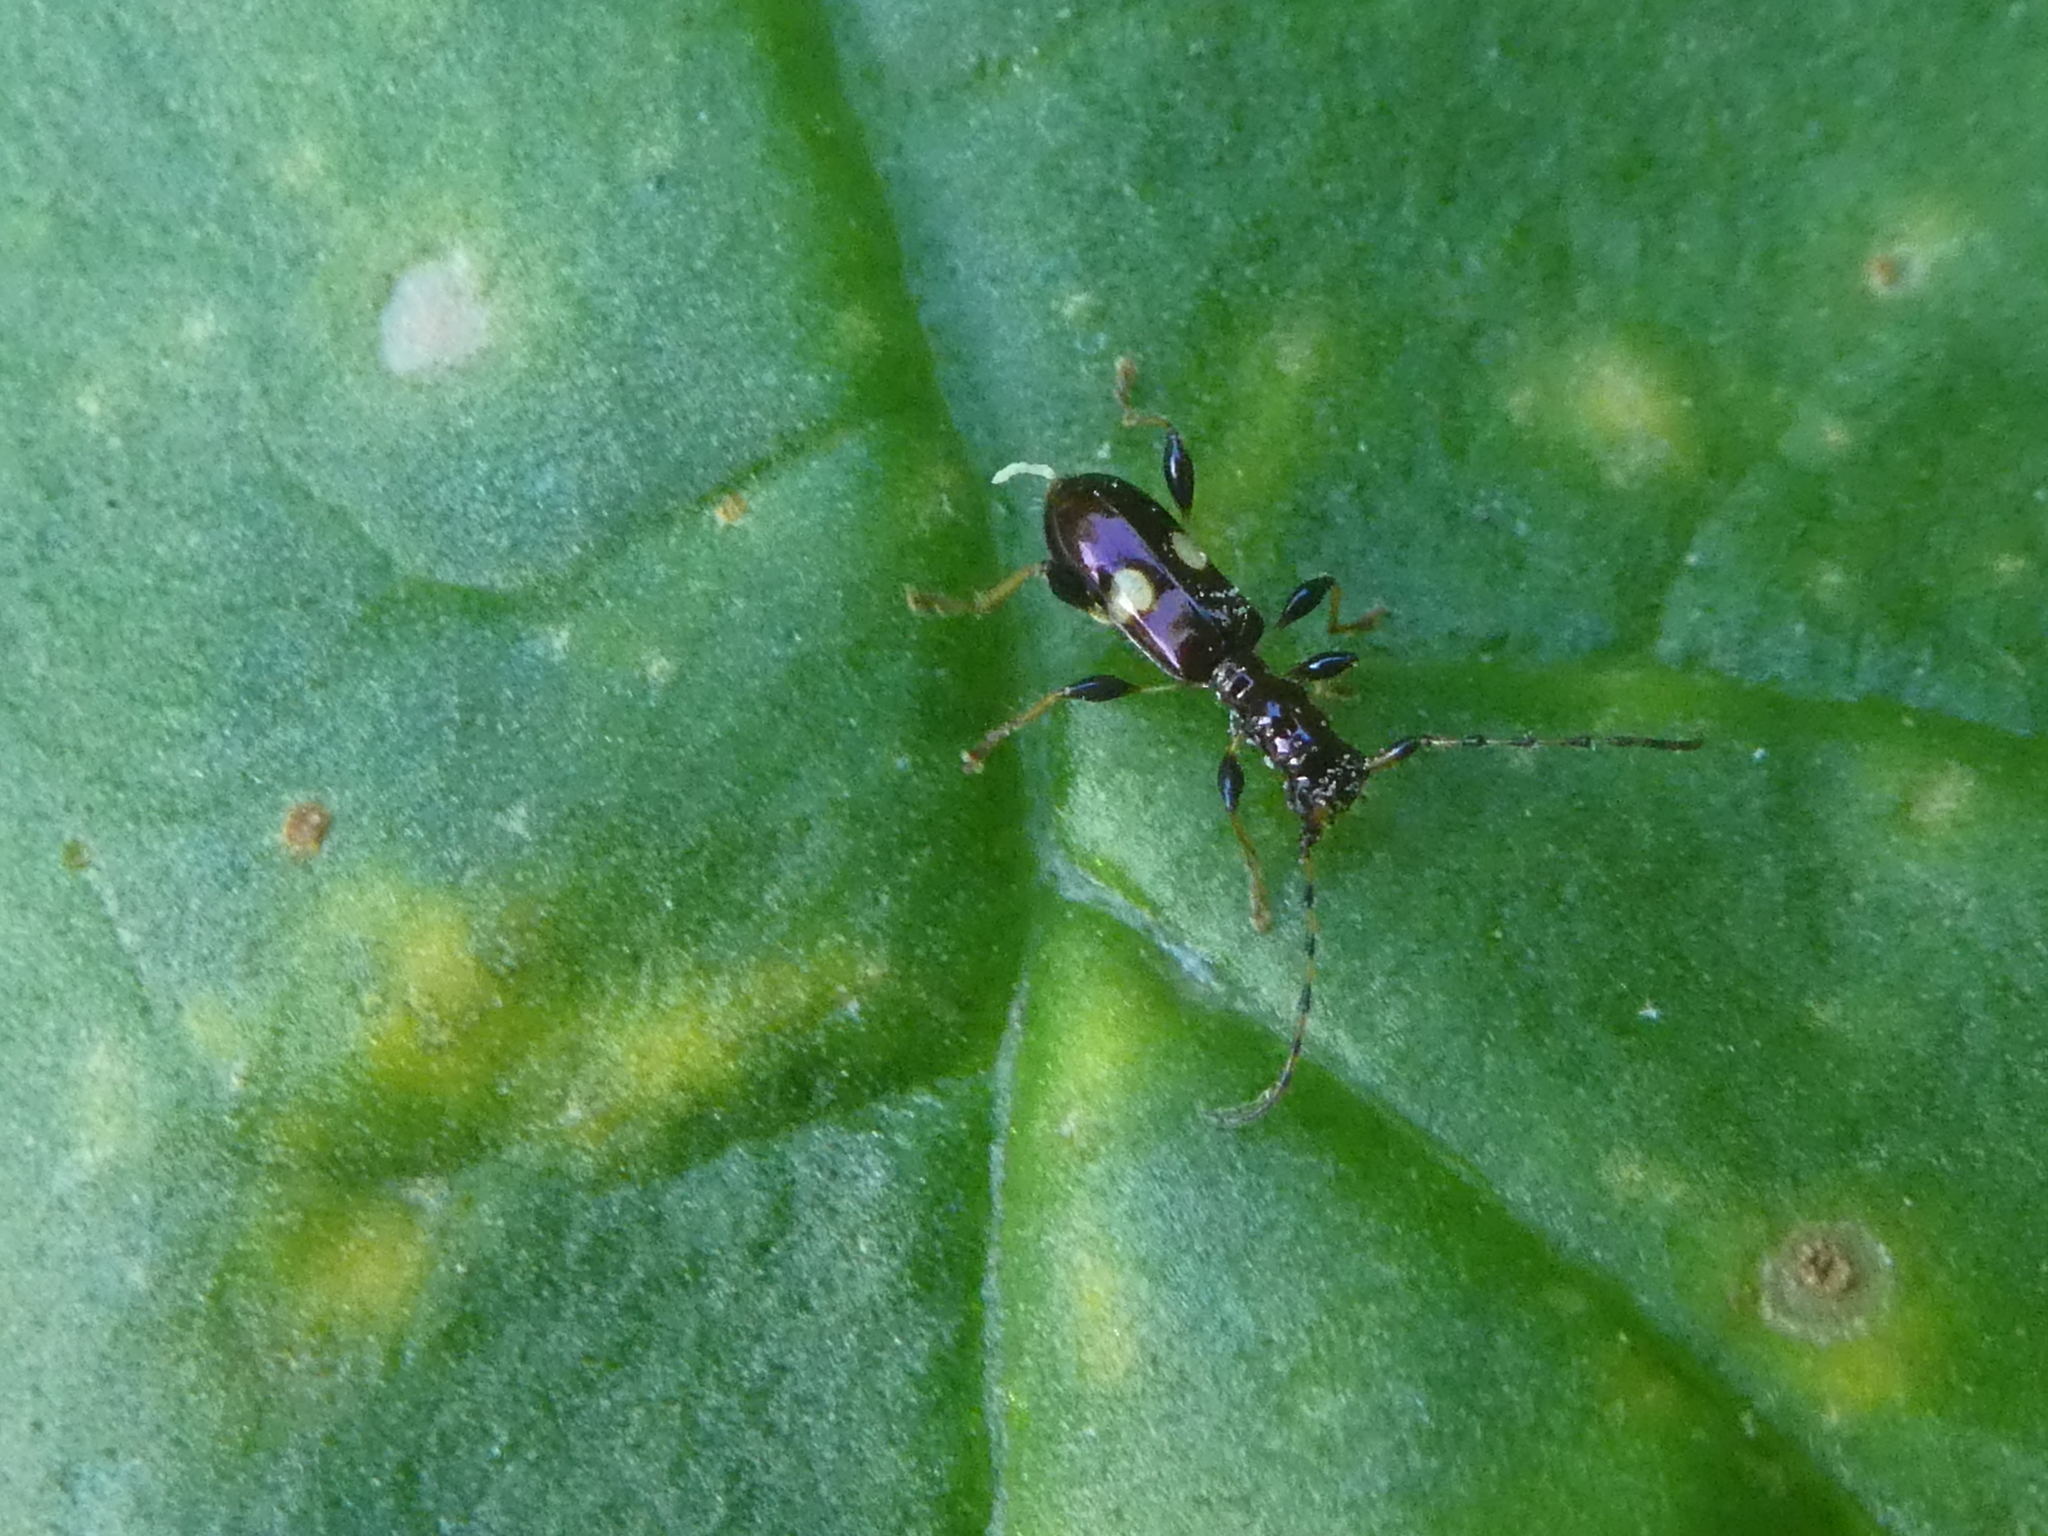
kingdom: Animalia
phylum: Arthropoda
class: Insecta
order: Coleoptera
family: Cerambycidae
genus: Zorion
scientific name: Zorion guttigerum
